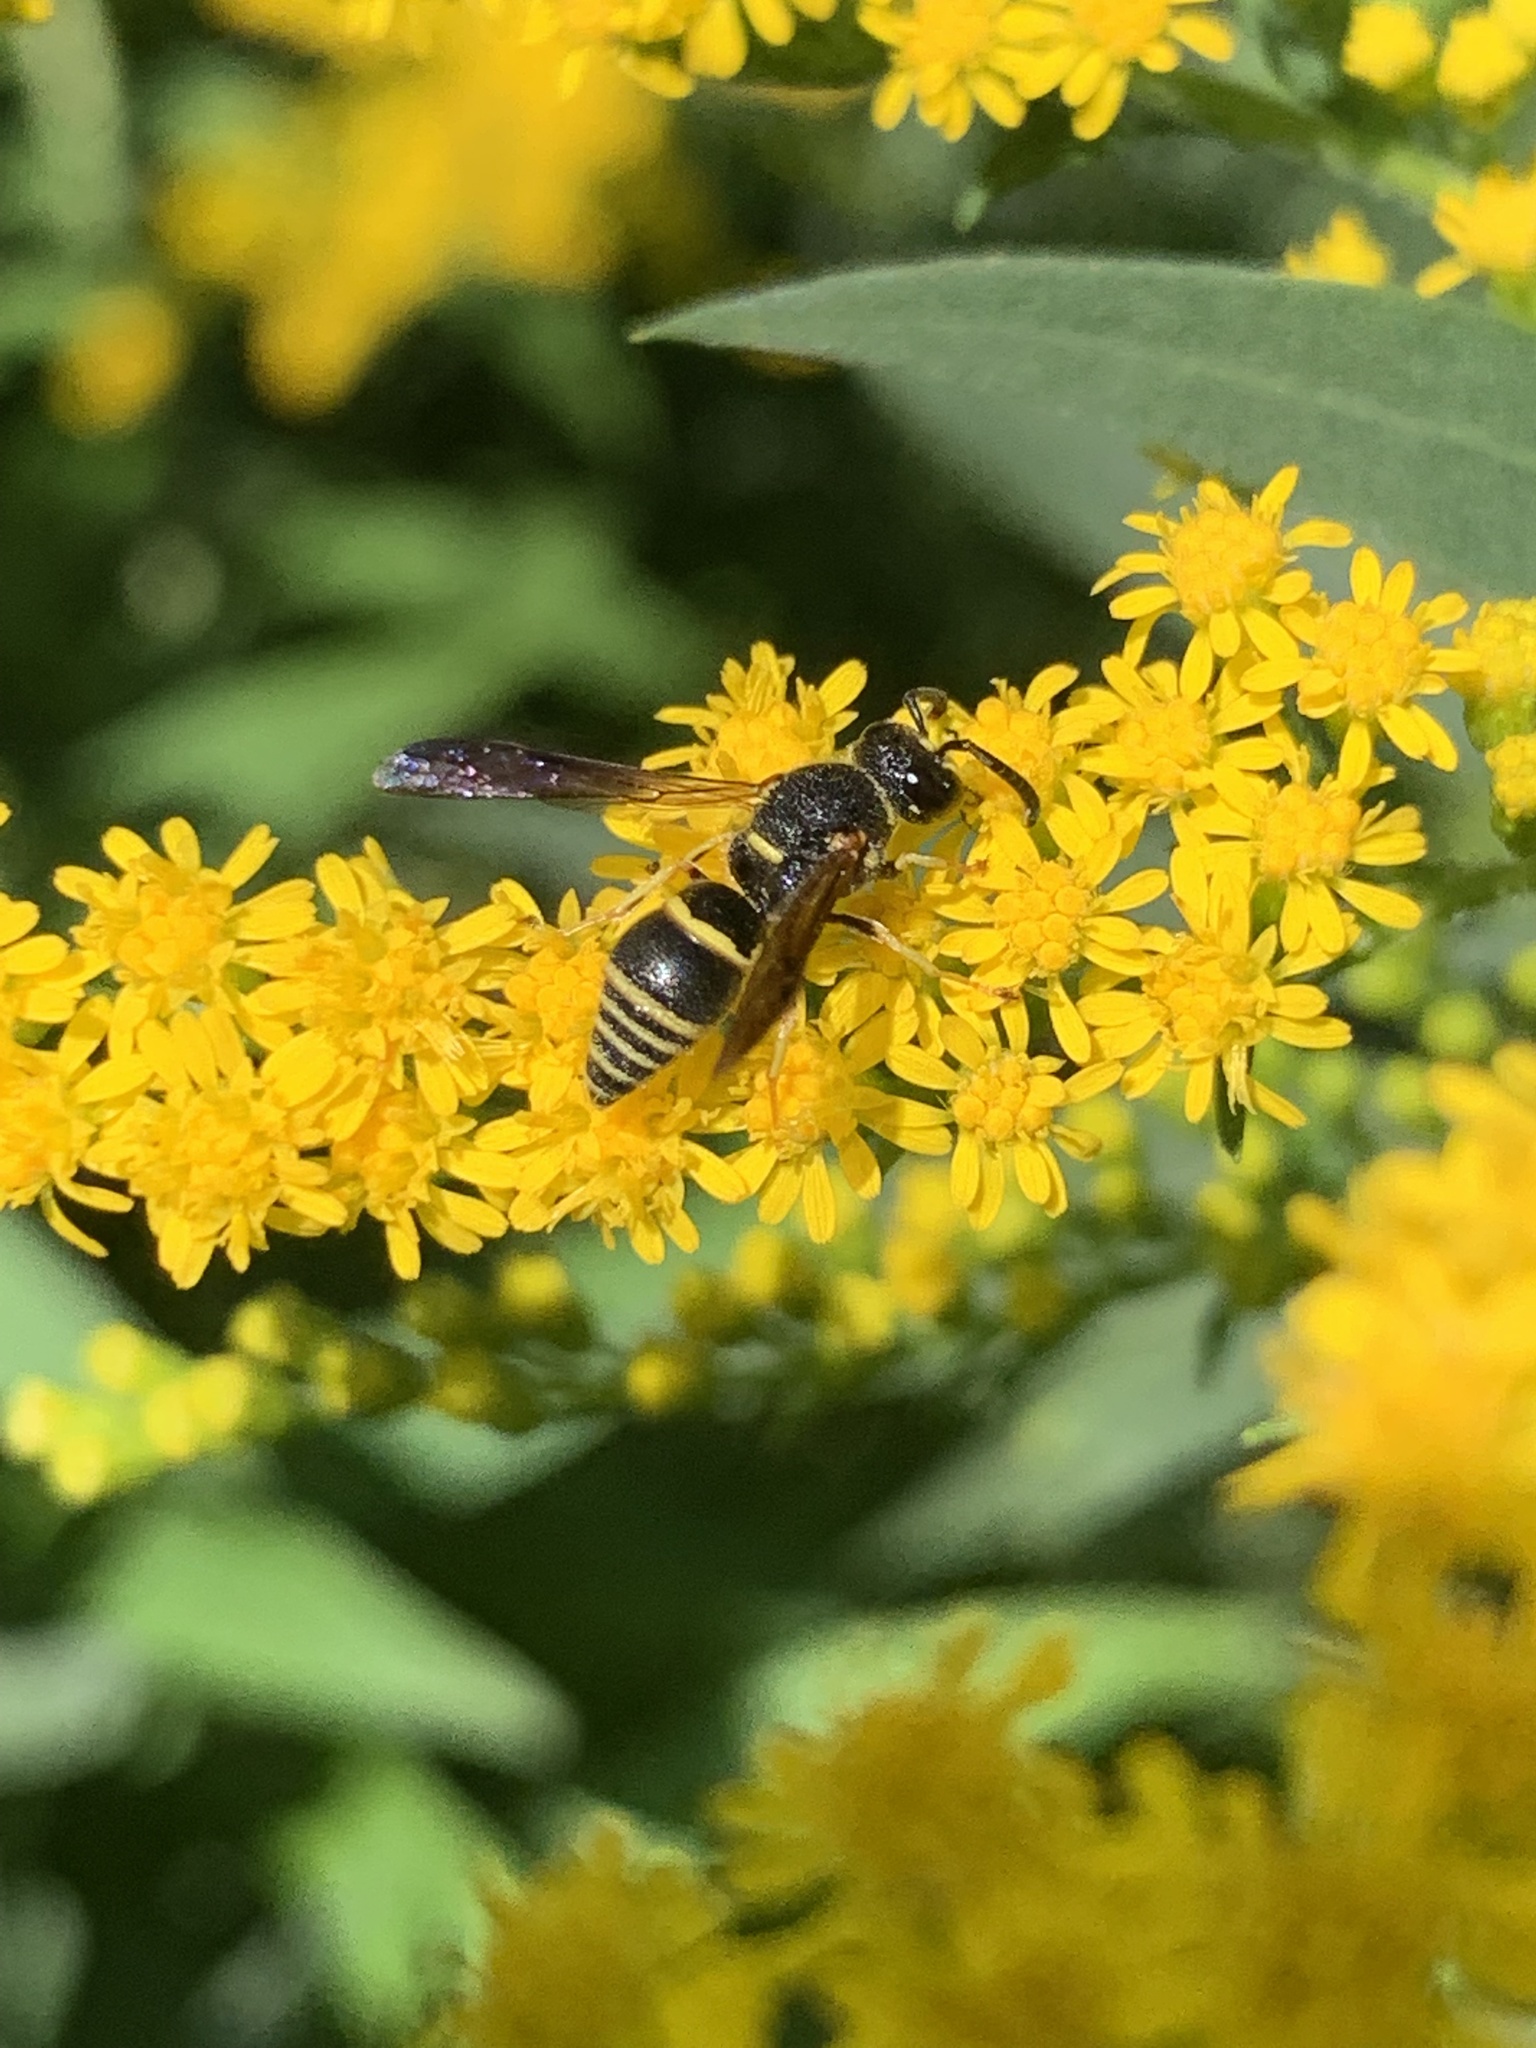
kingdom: Animalia
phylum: Arthropoda
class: Insecta
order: Hymenoptera
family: Eumenidae
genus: Euodynerus
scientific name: Euodynerus foraminatus
